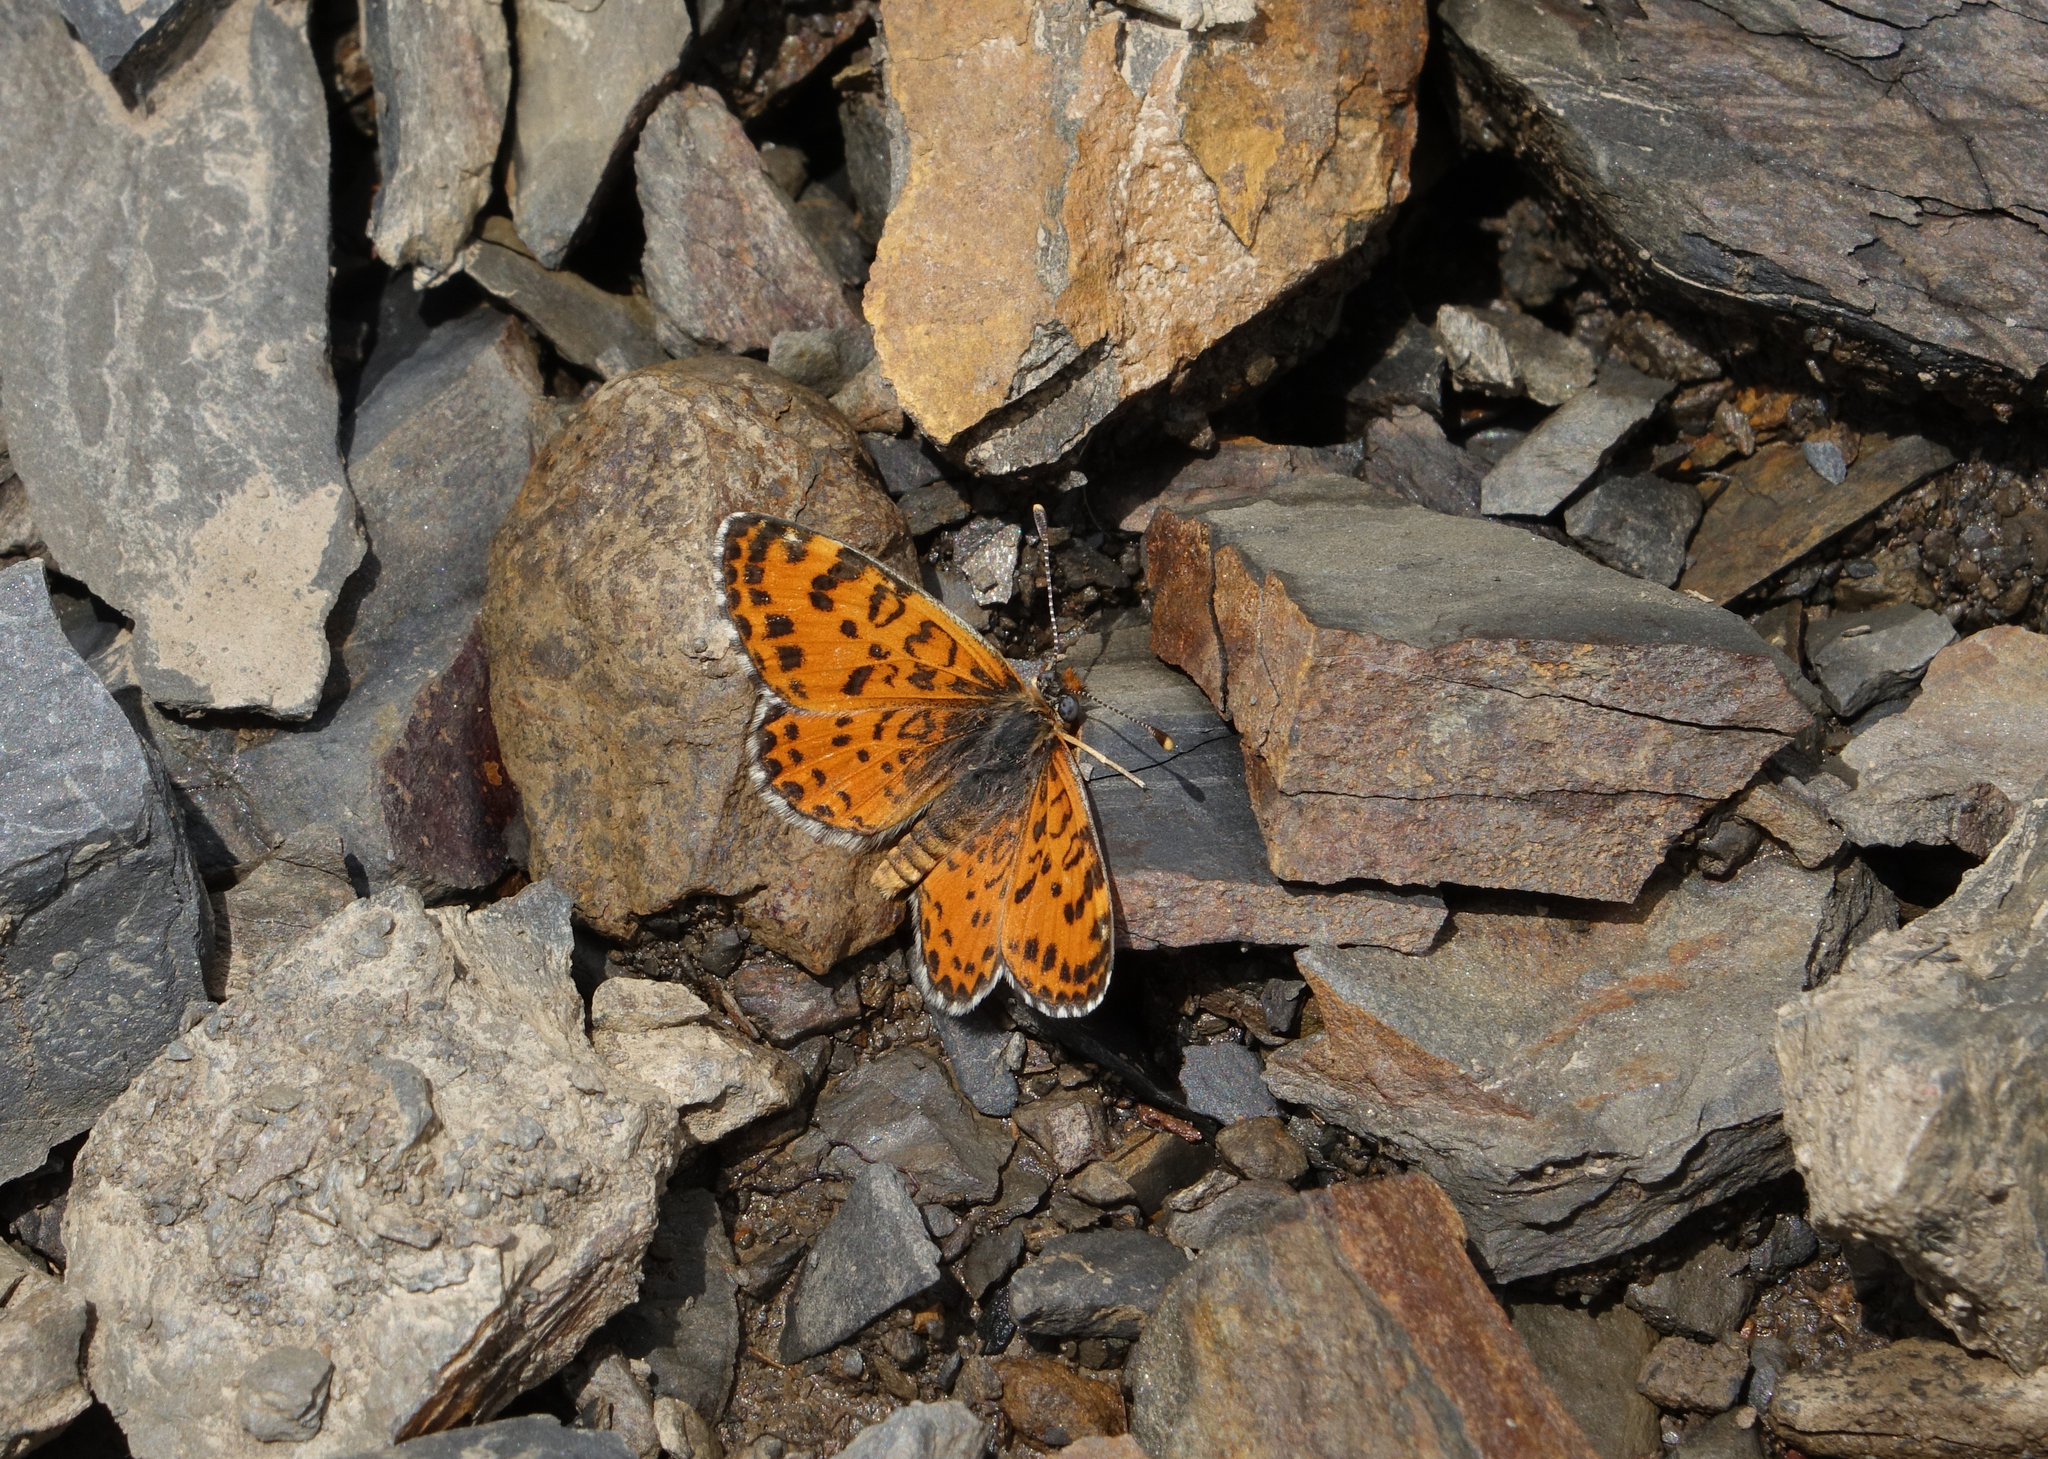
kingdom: Animalia
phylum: Arthropoda
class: Insecta
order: Lepidoptera
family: Nymphalidae
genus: Melitaea
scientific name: Melitaea trivia
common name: Lesser spotted fritillary
